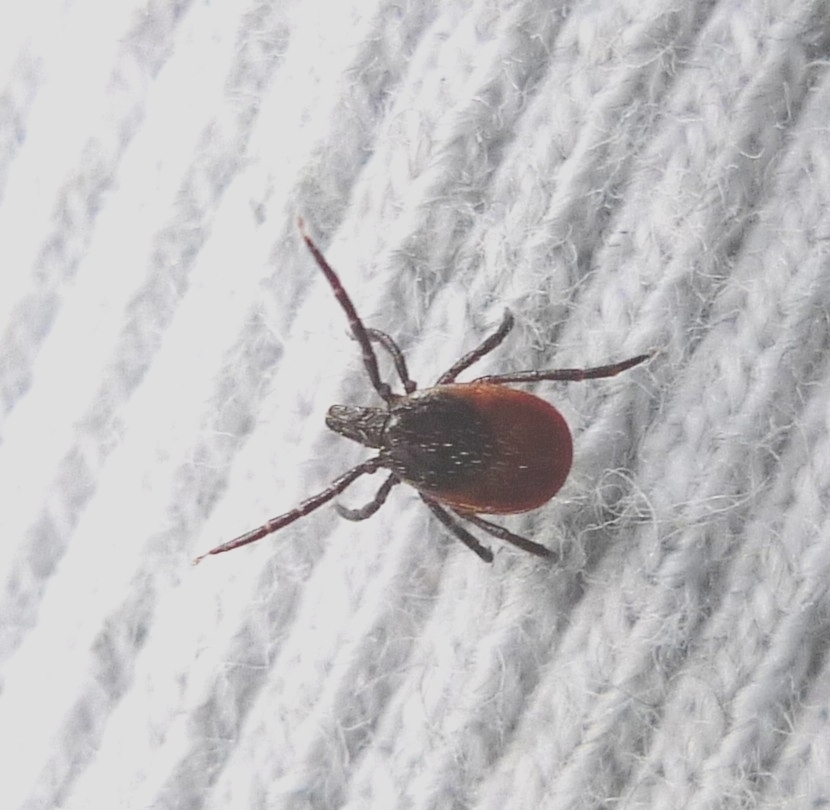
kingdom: Animalia
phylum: Arthropoda
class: Arachnida
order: Ixodida
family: Ixodidae
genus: Ixodes
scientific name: Ixodes ricinus
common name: Castor bean tick
